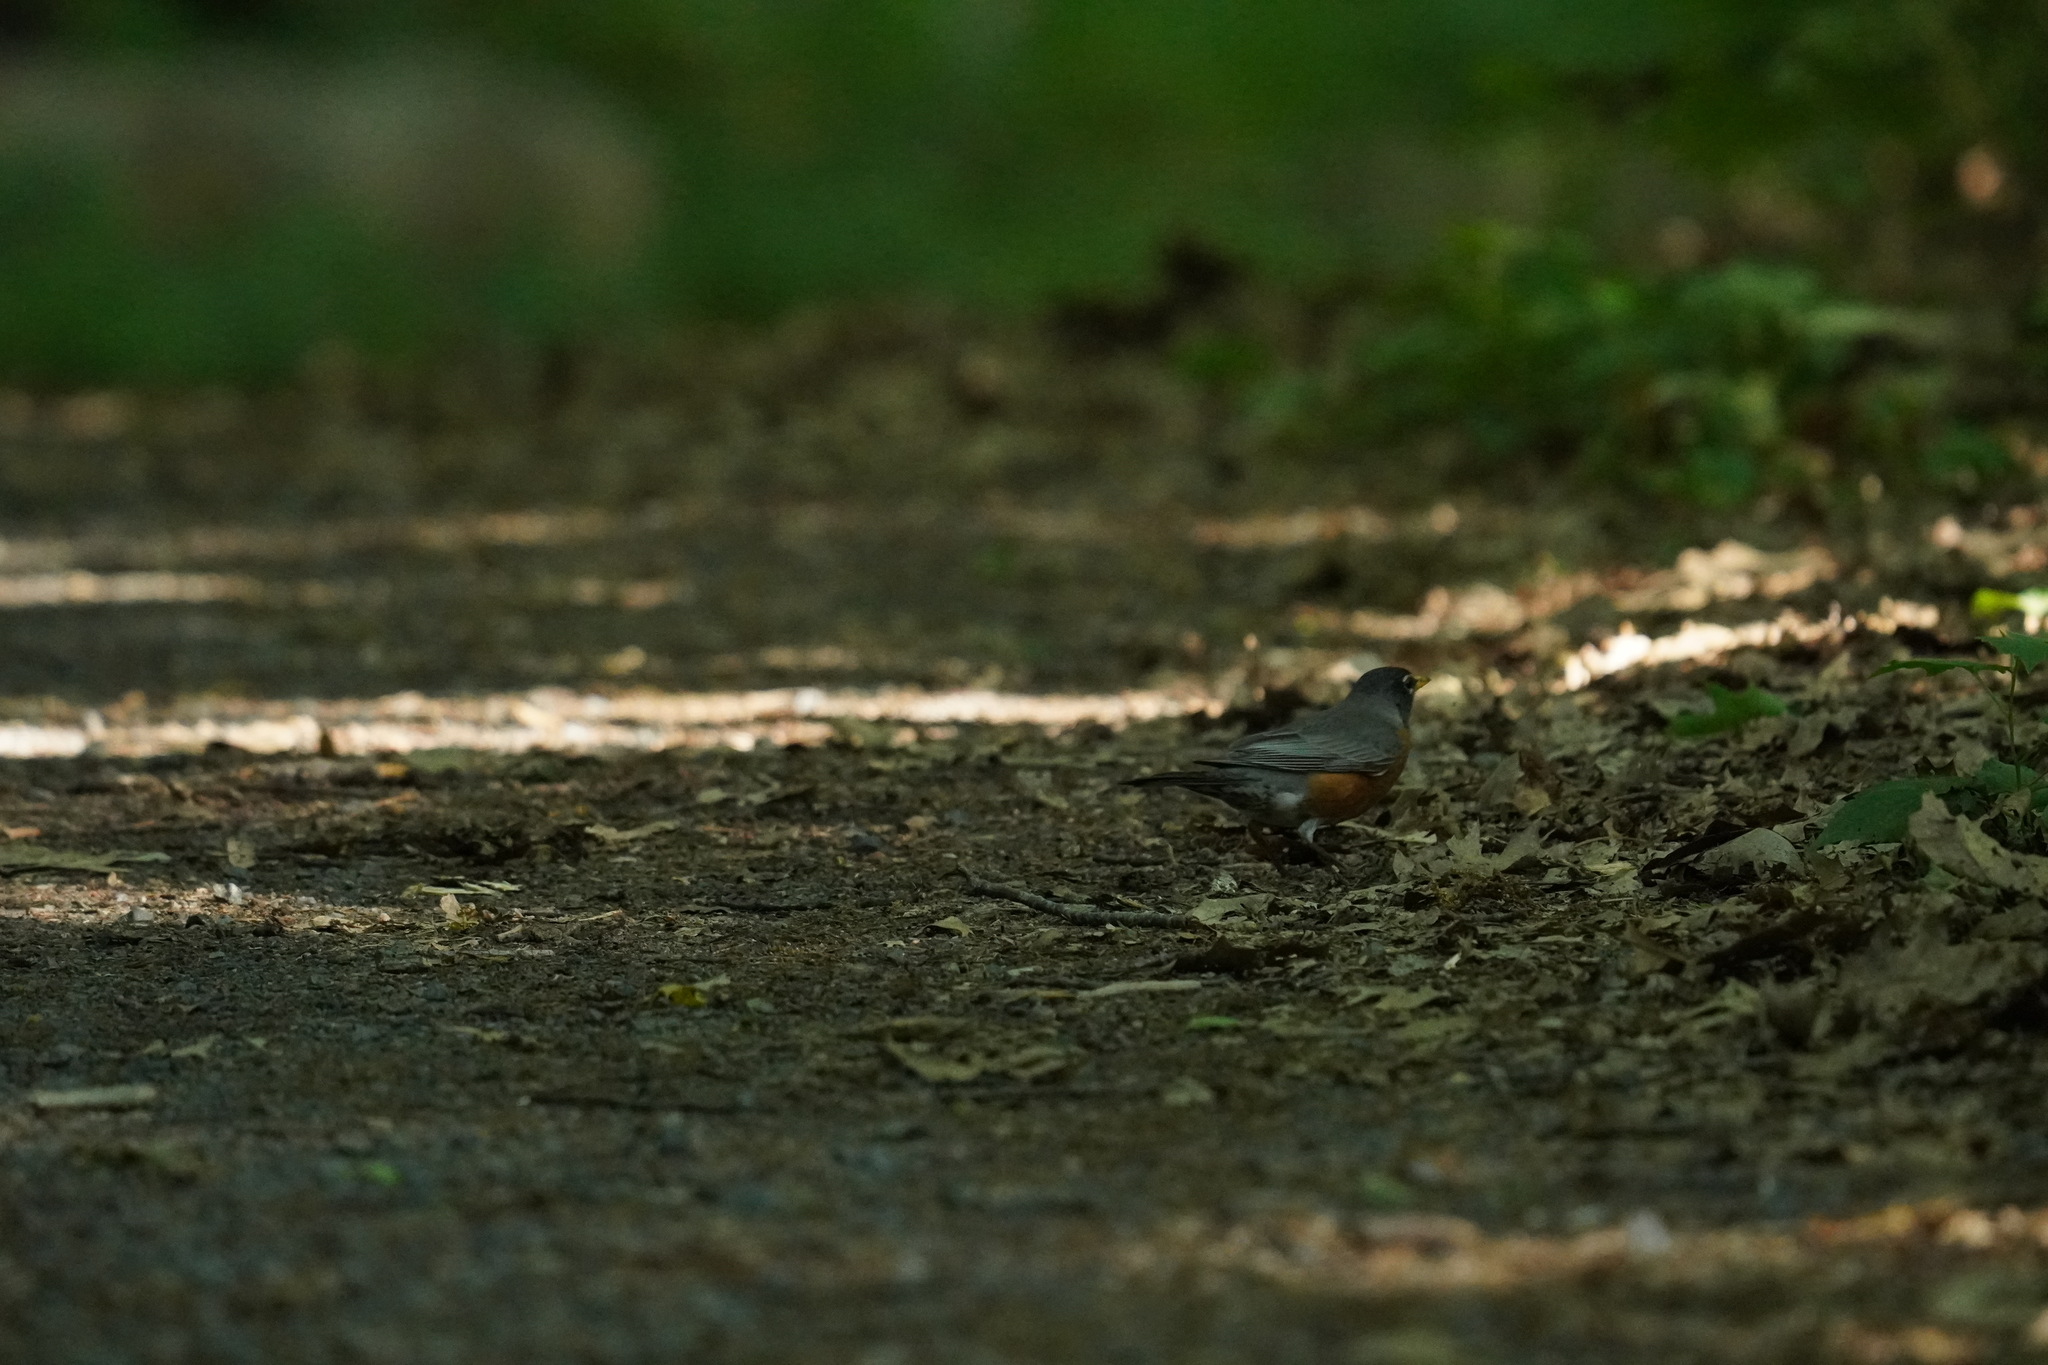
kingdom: Animalia
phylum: Chordata
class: Aves
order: Passeriformes
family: Turdidae
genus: Turdus
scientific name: Turdus migratorius
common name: American robin
